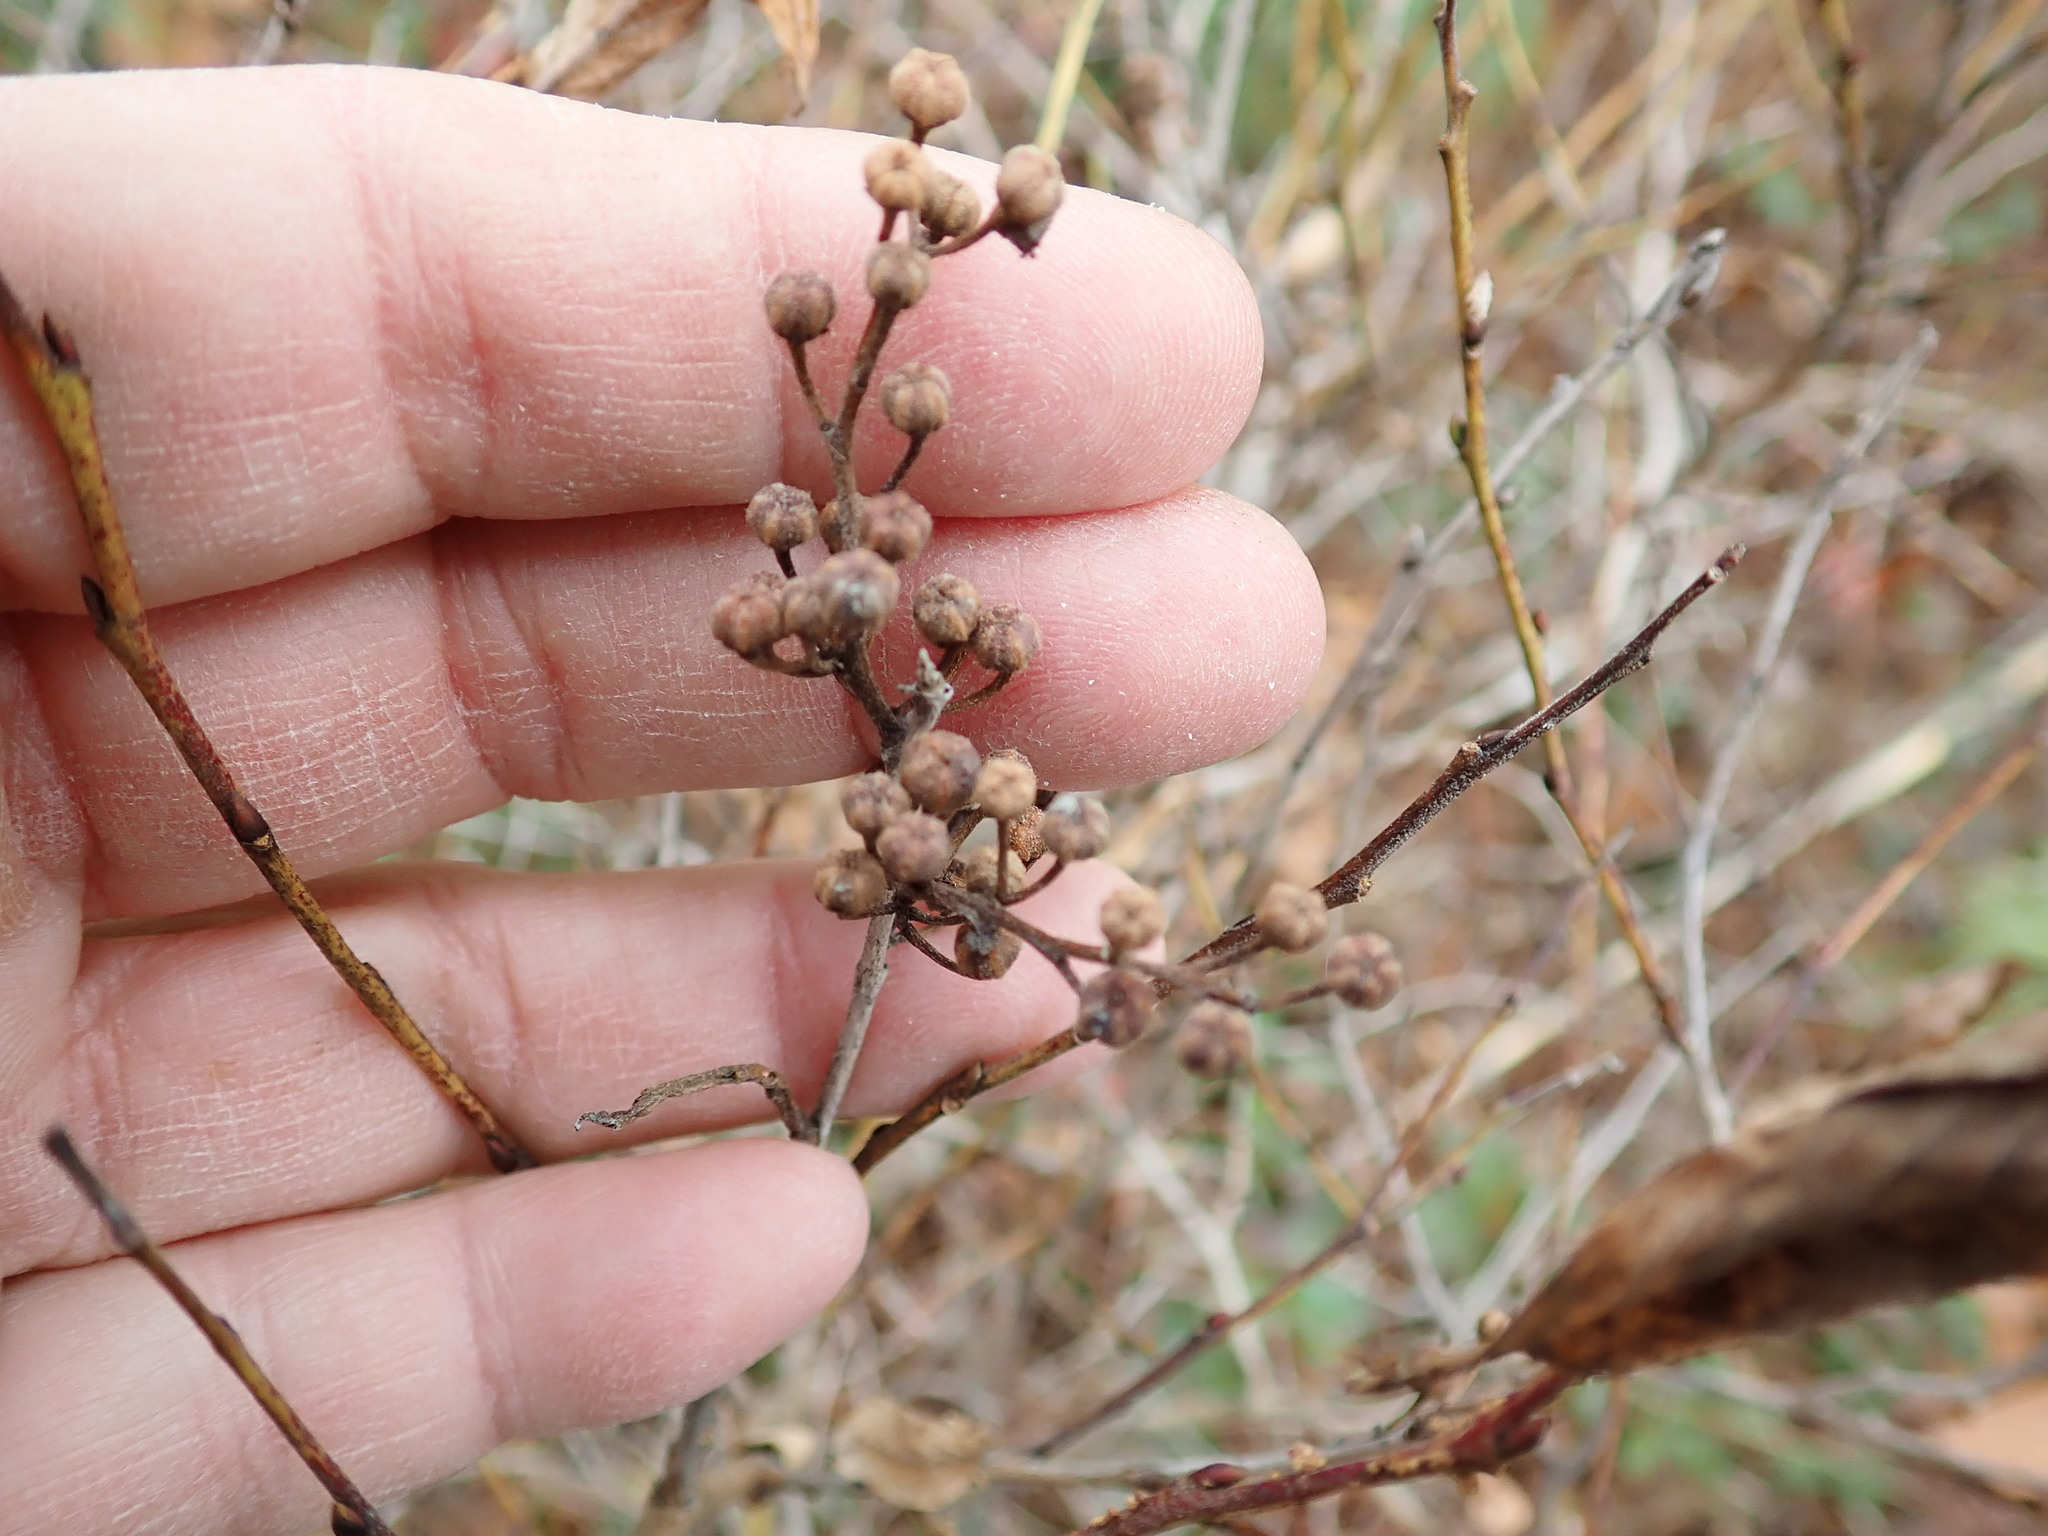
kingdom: Plantae
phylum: Tracheophyta
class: Magnoliopsida
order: Ericales
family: Ericaceae
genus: Lyonia
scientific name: Lyonia ligustrina
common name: Maleberry
